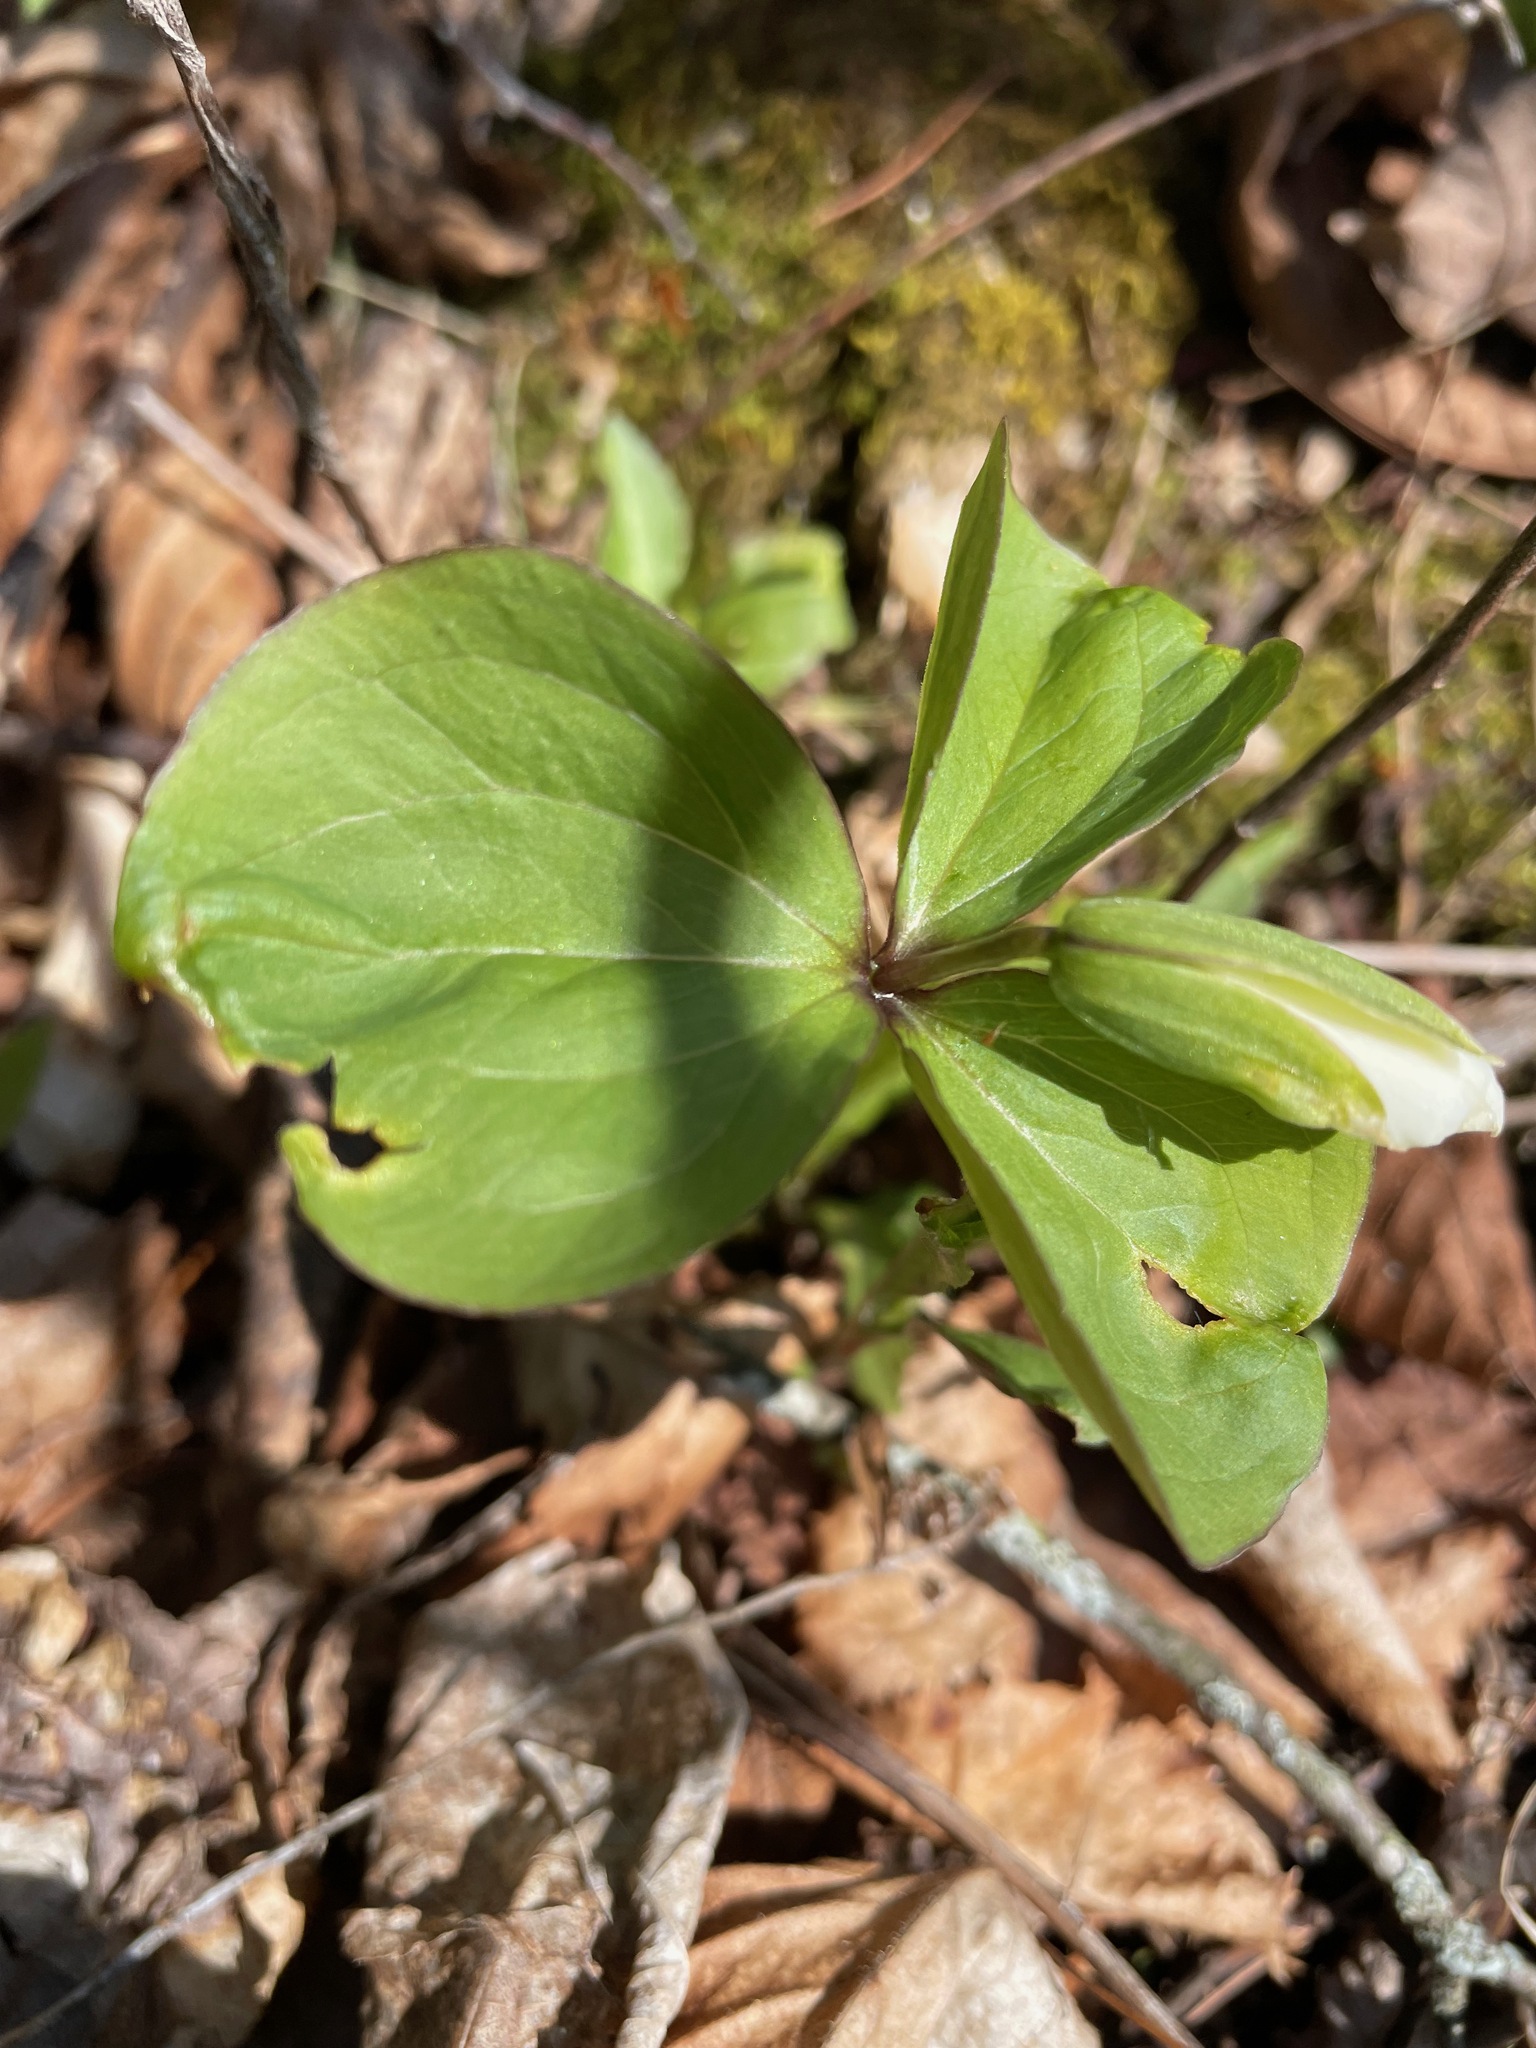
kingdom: Plantae
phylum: Tracheophyta
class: Liliopsida
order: Liliales
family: Melanthiaceae
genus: Trillium
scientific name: Trillium grandiflorum
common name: Great white trillium
